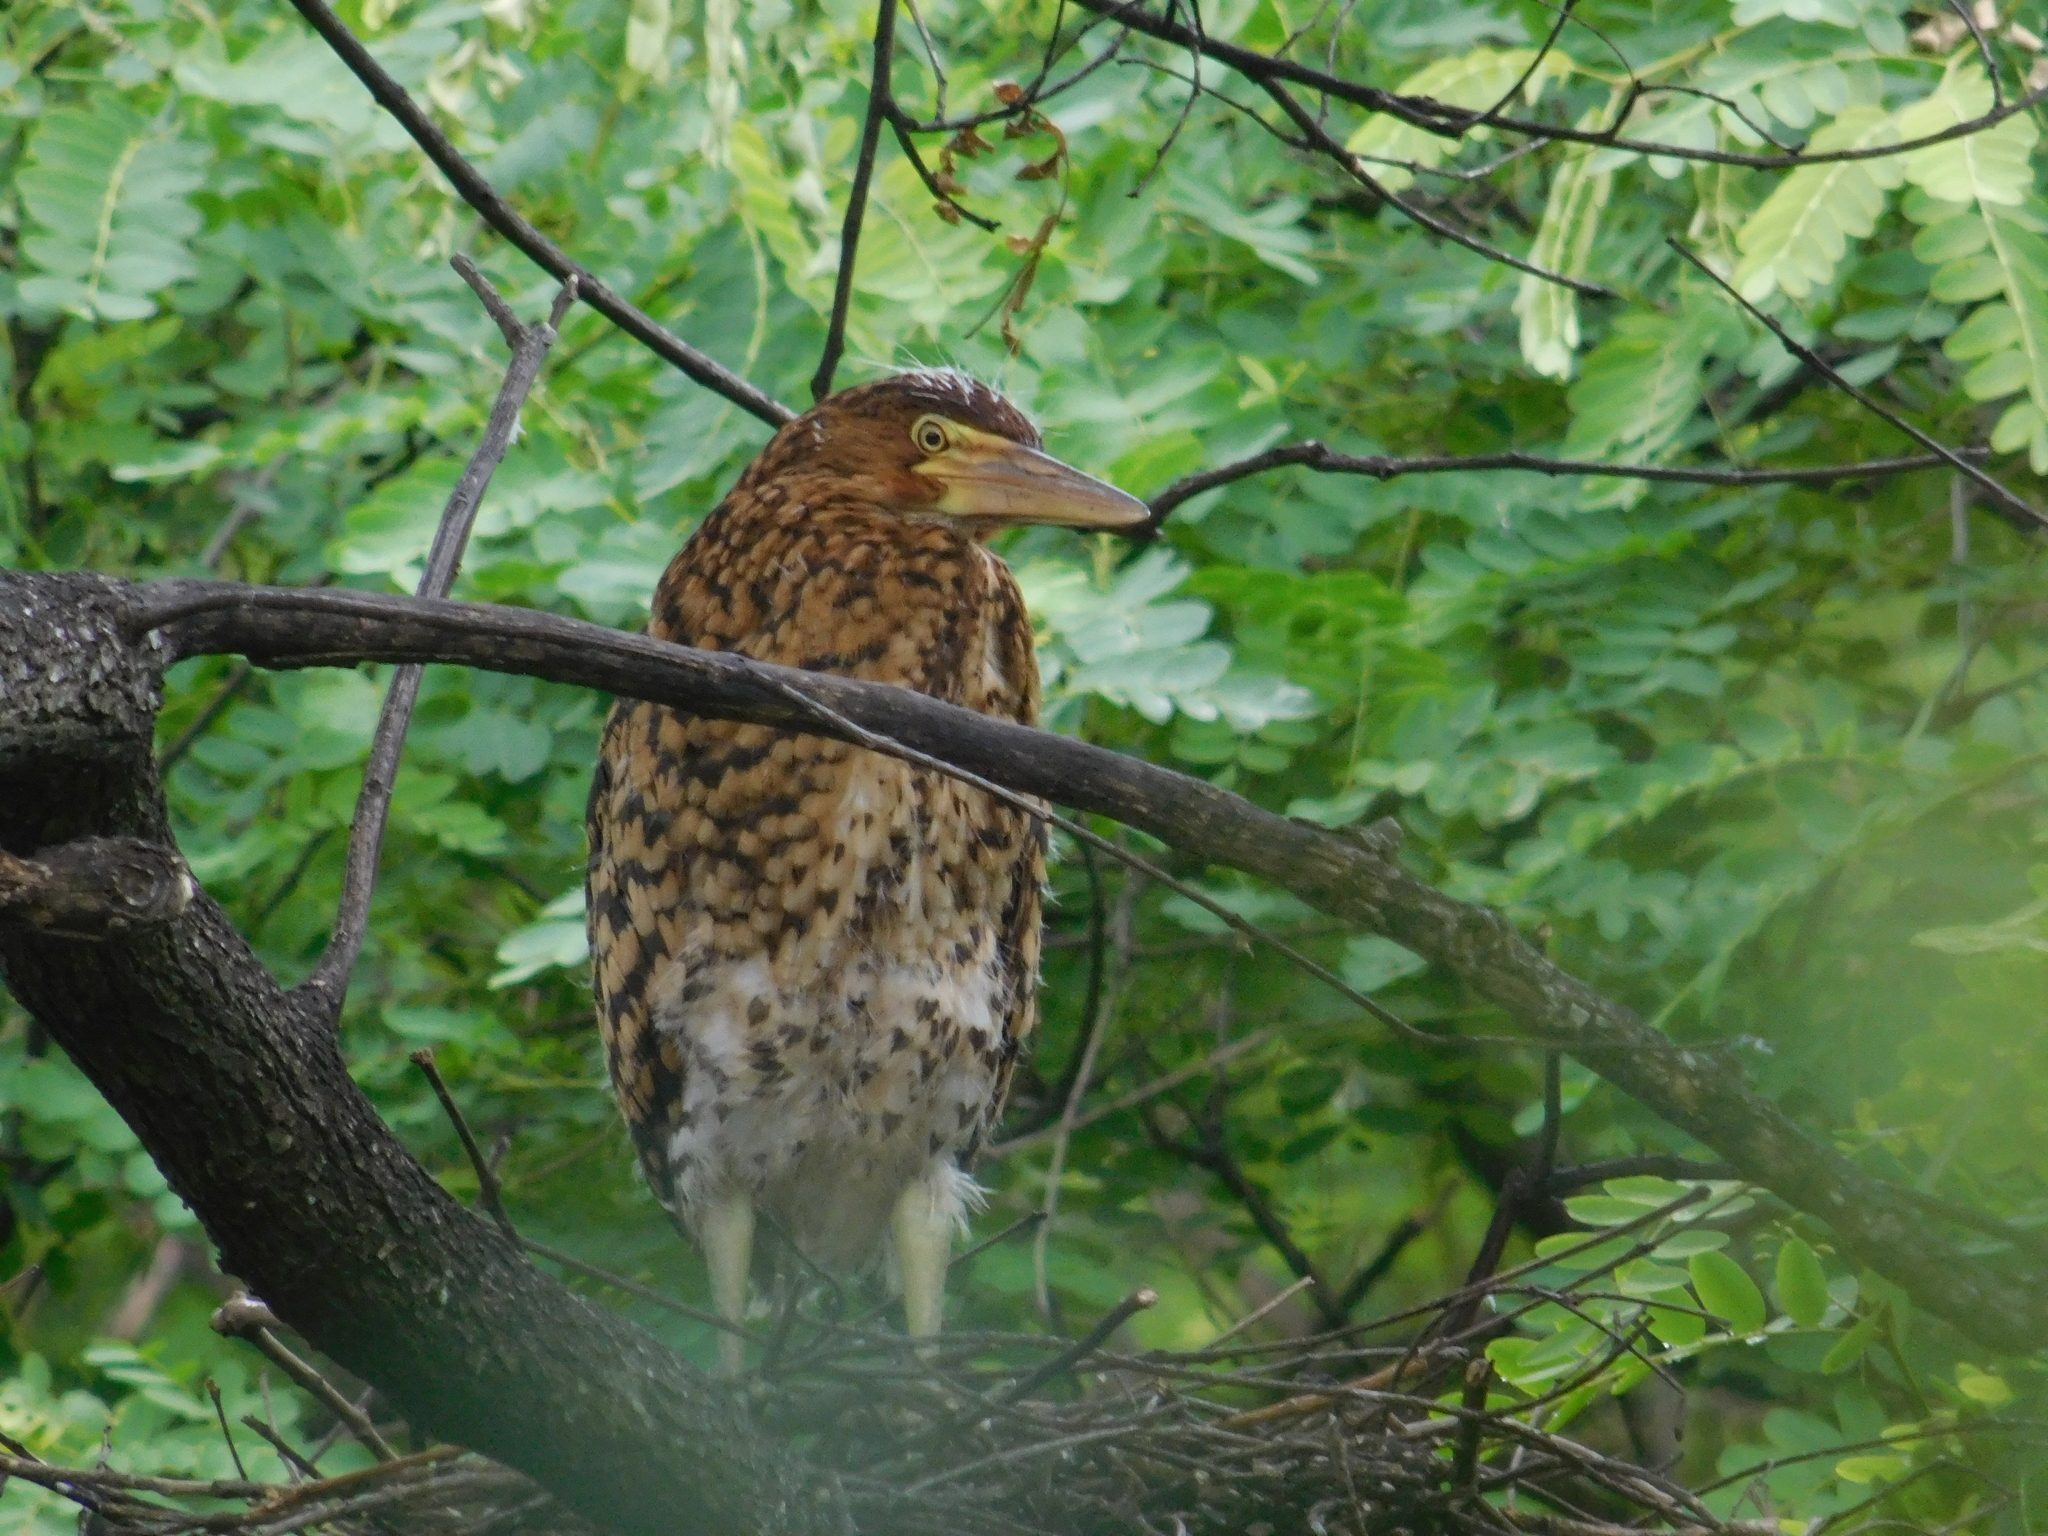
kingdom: Animalia
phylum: Chordata
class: Aves
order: Pelecaniformes
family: Ardeidae
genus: Tigrisoma
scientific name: Tigrisoma lineatum
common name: Rufescent tiger-heron
